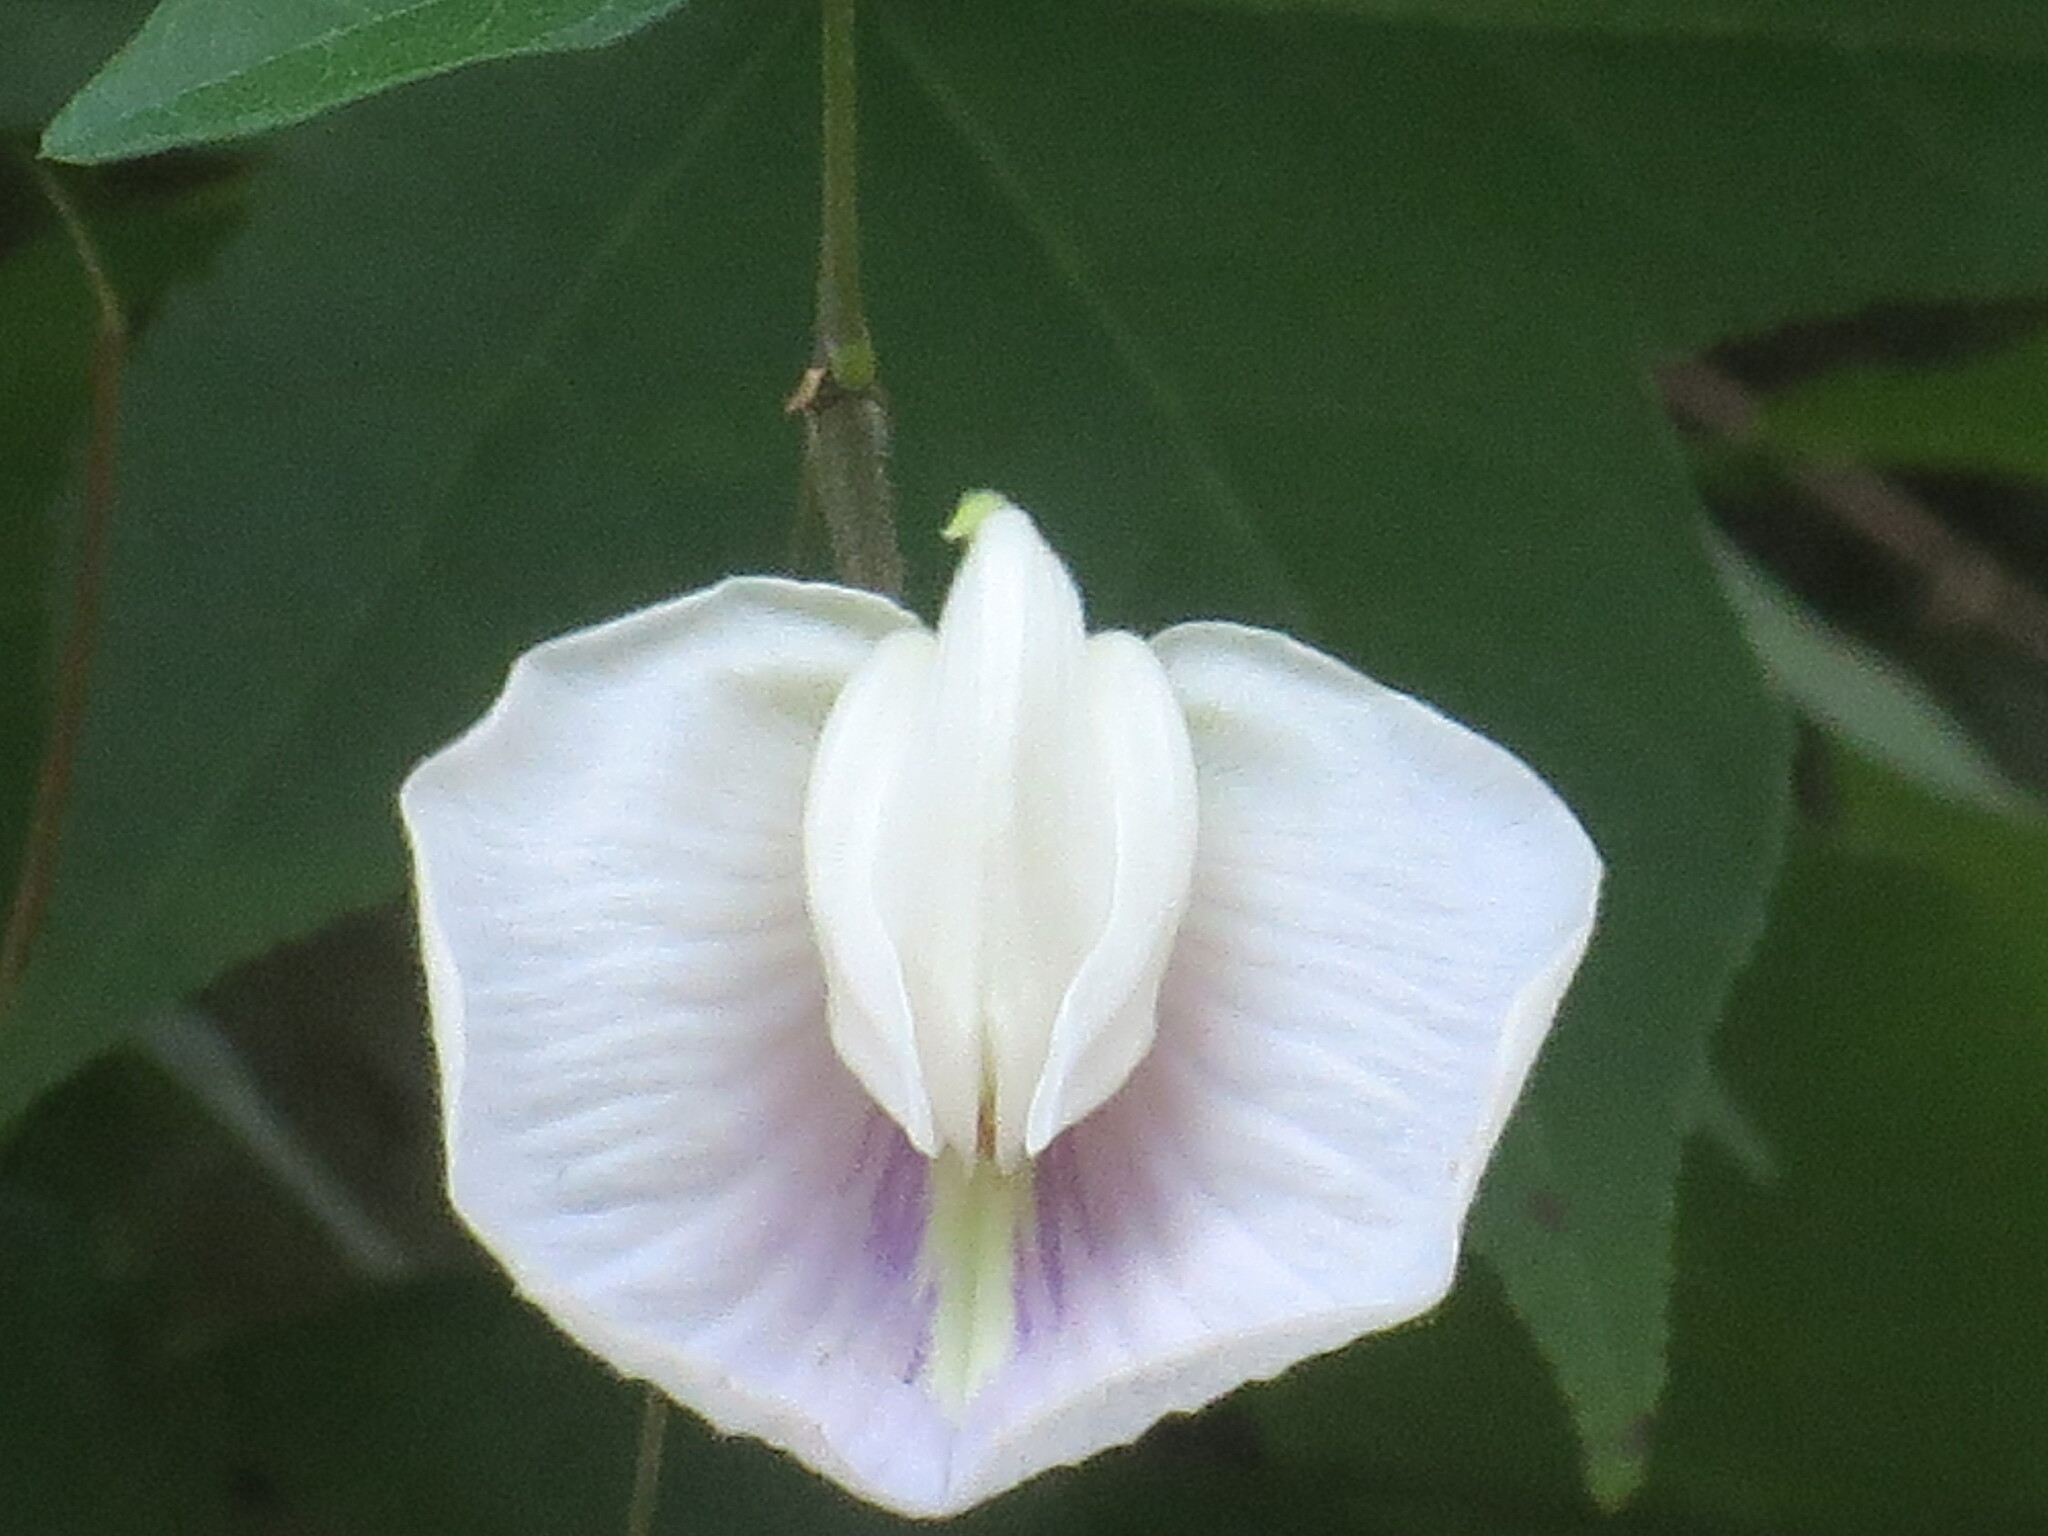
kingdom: Plantae
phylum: Tracheophyta
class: Magnoliopsida
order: Fabales
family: Fabaceae
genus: Centrosema
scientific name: Centrosema virginianum
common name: Butterfly-pea
